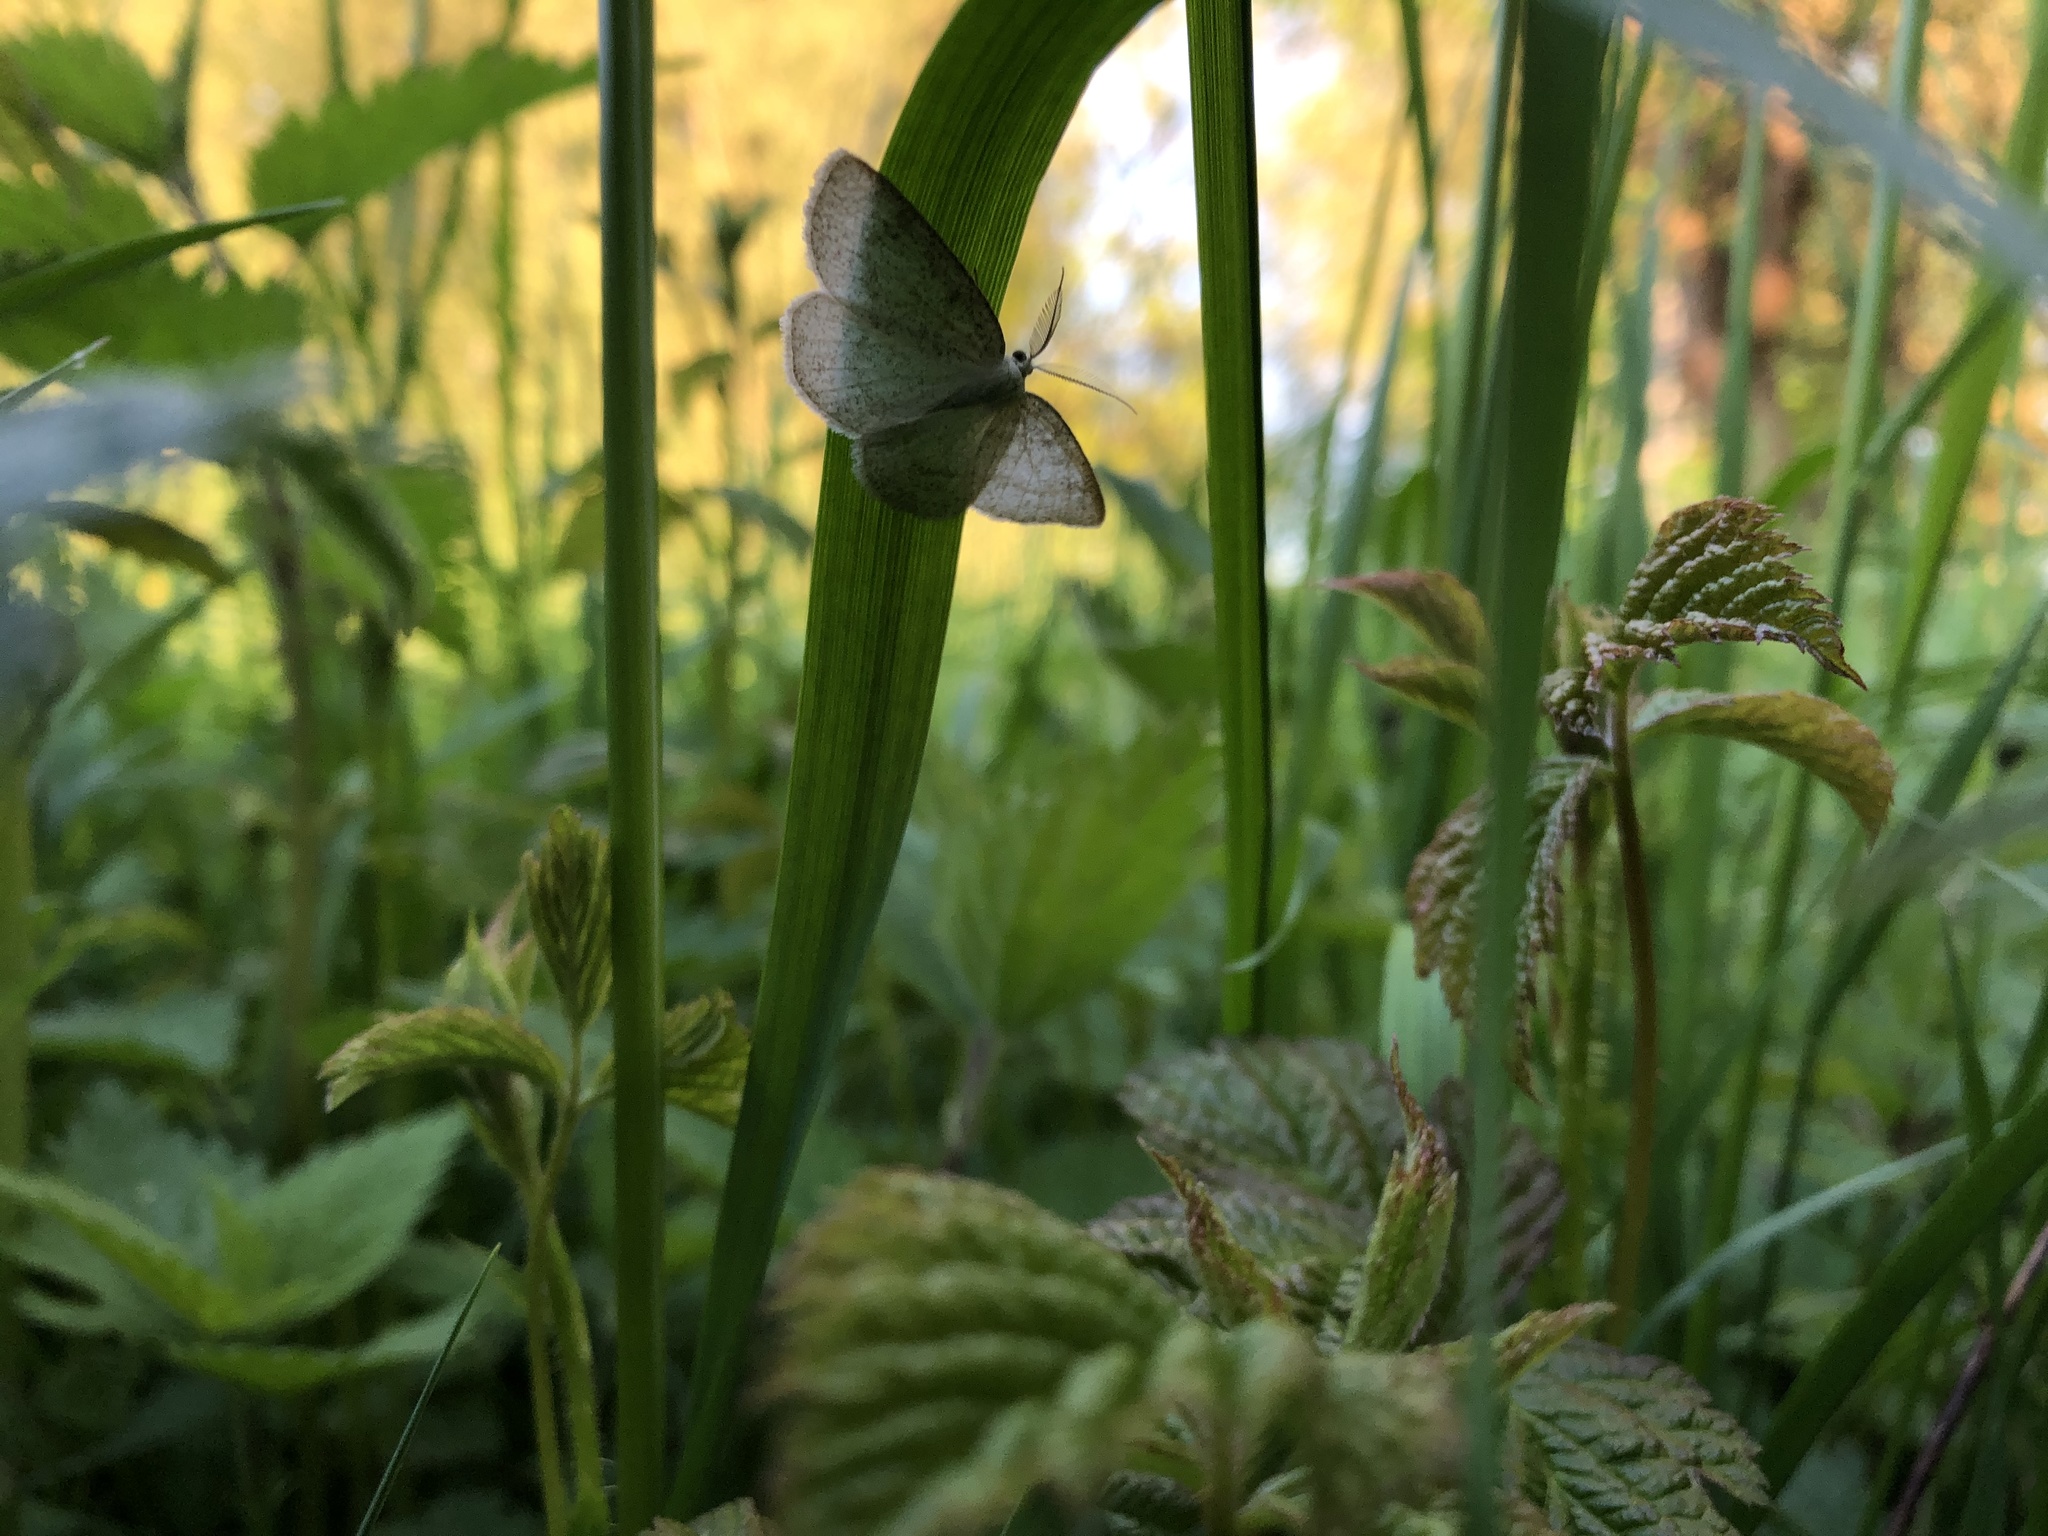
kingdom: Animalia
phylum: Arthropoda
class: Insecta
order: Lepidoptera
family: Geometridae
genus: Cabera
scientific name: Cabera exanthemata
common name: Common wave
